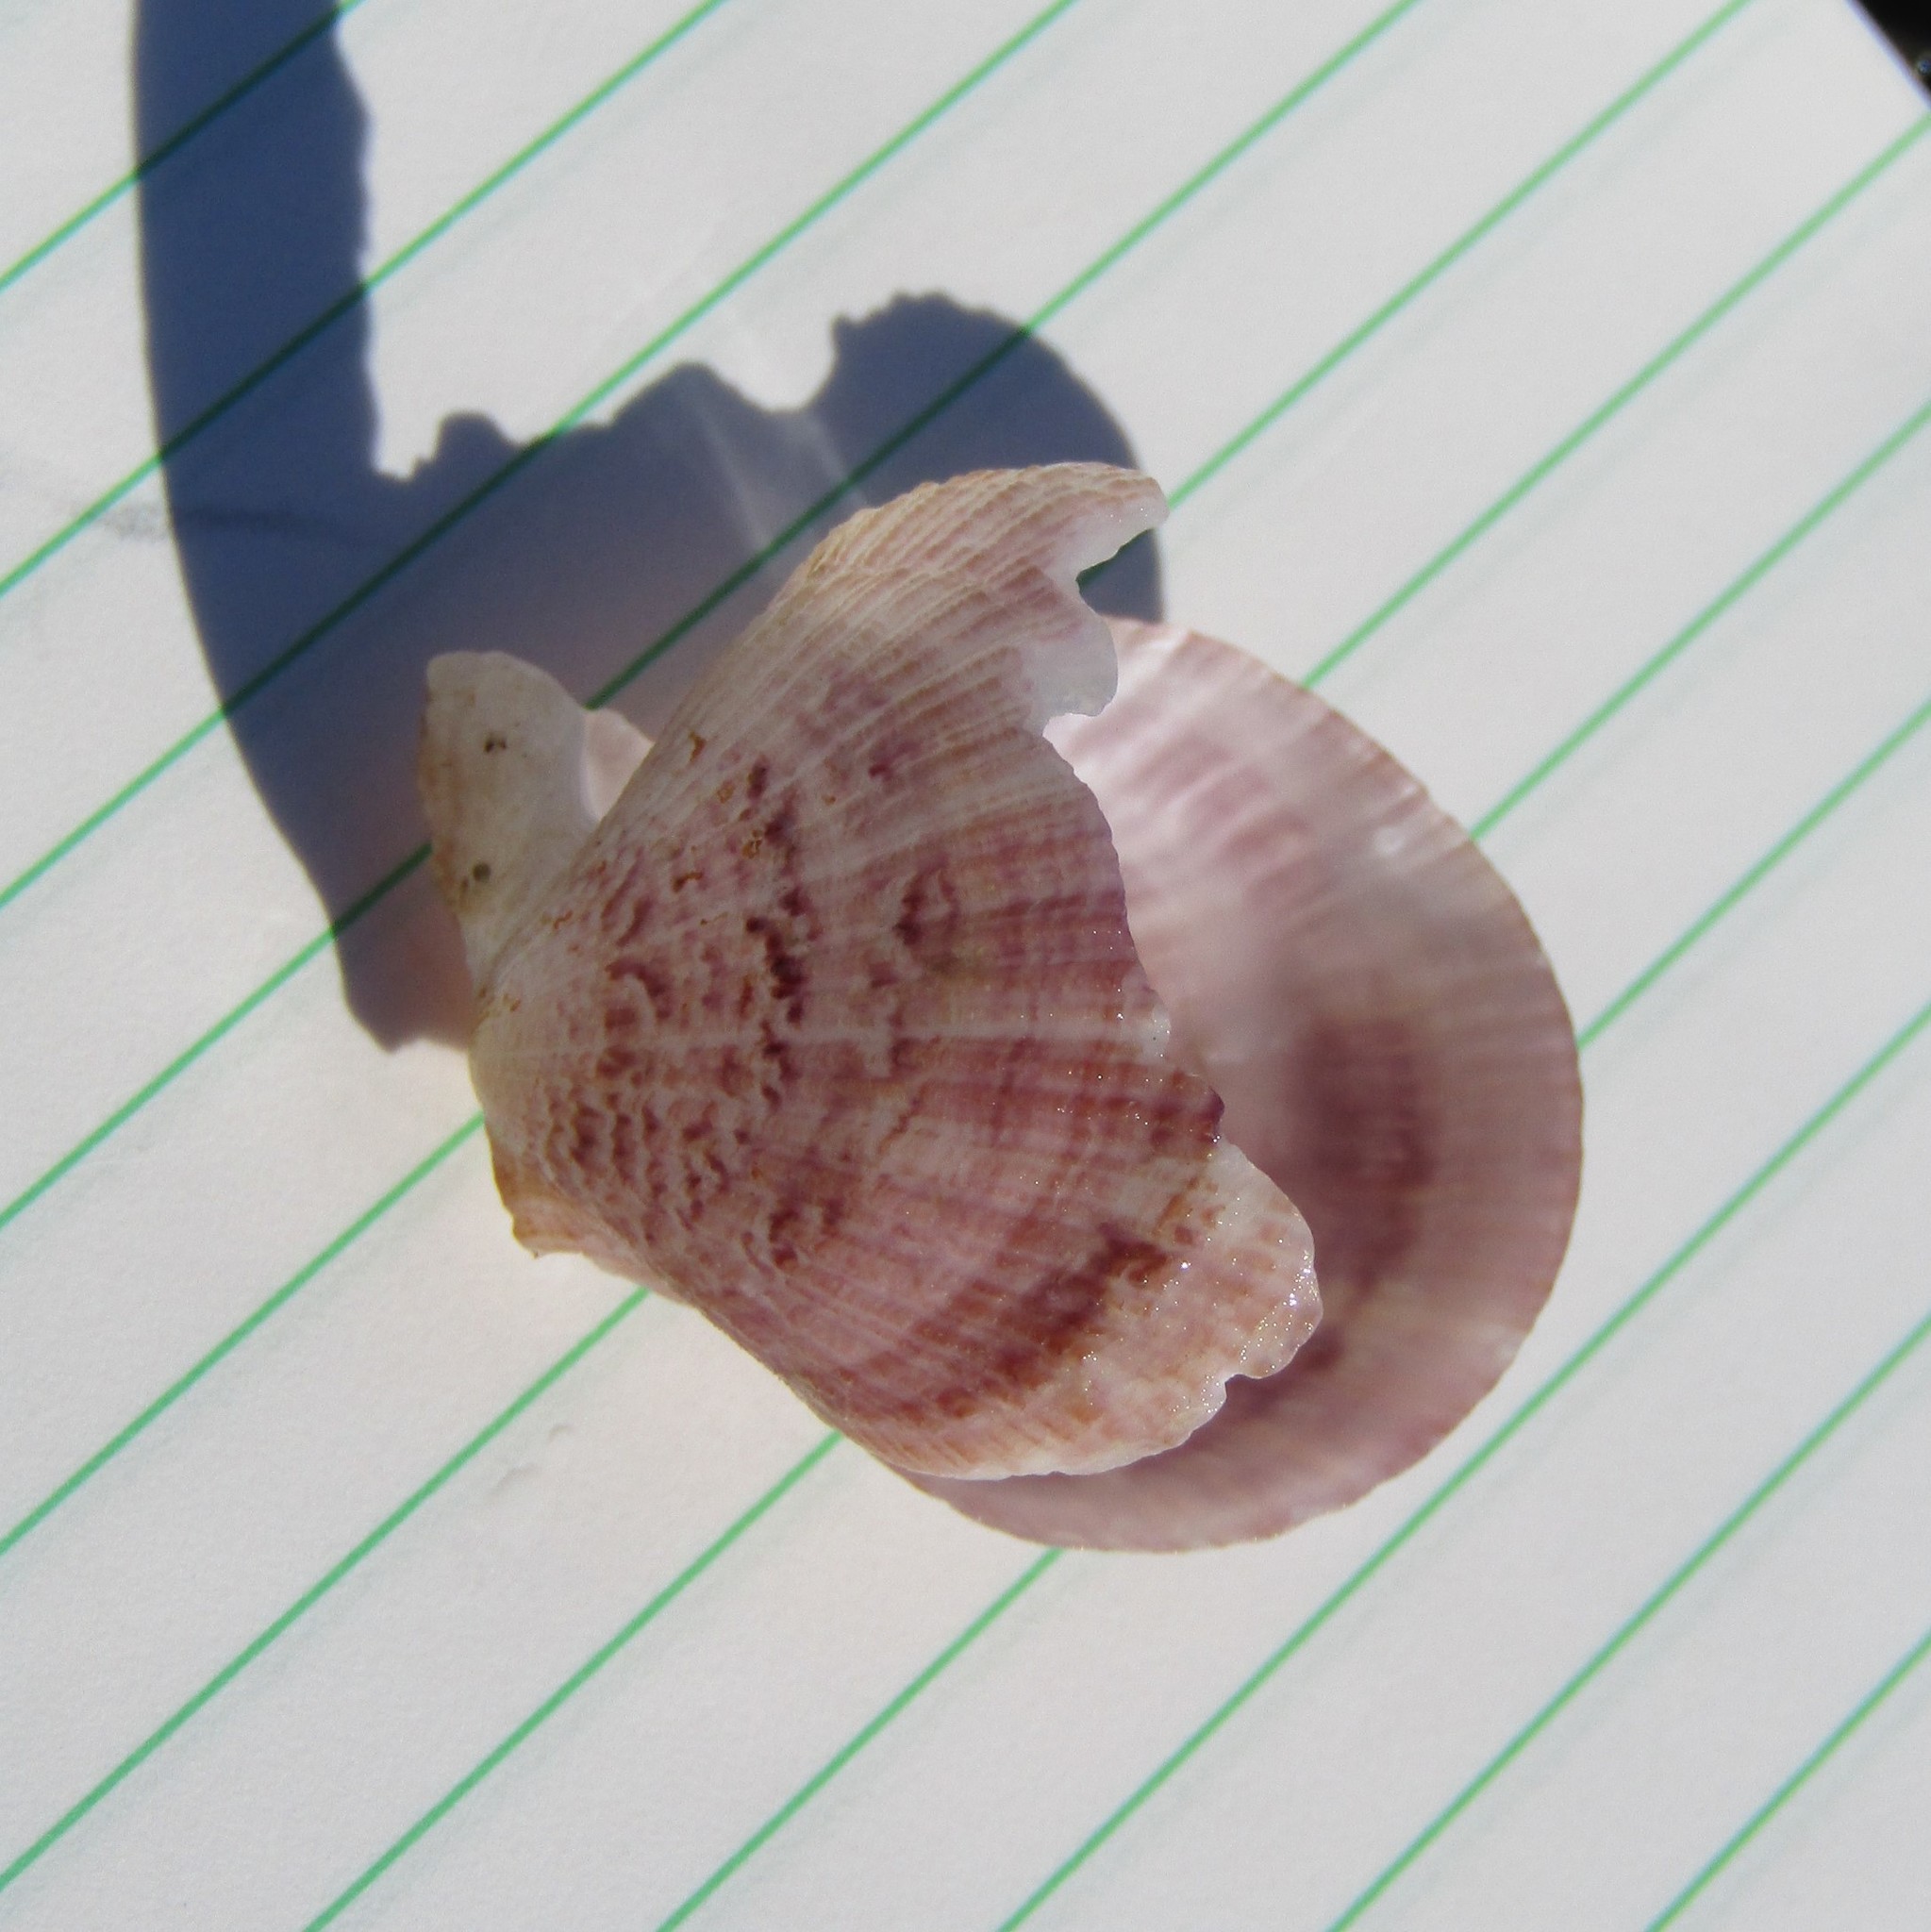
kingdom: Animalia
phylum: Mollusca
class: Bivalvia
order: Pectinida
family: Pectinidae
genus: Talochlamys
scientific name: Talochlamys zelandiae
